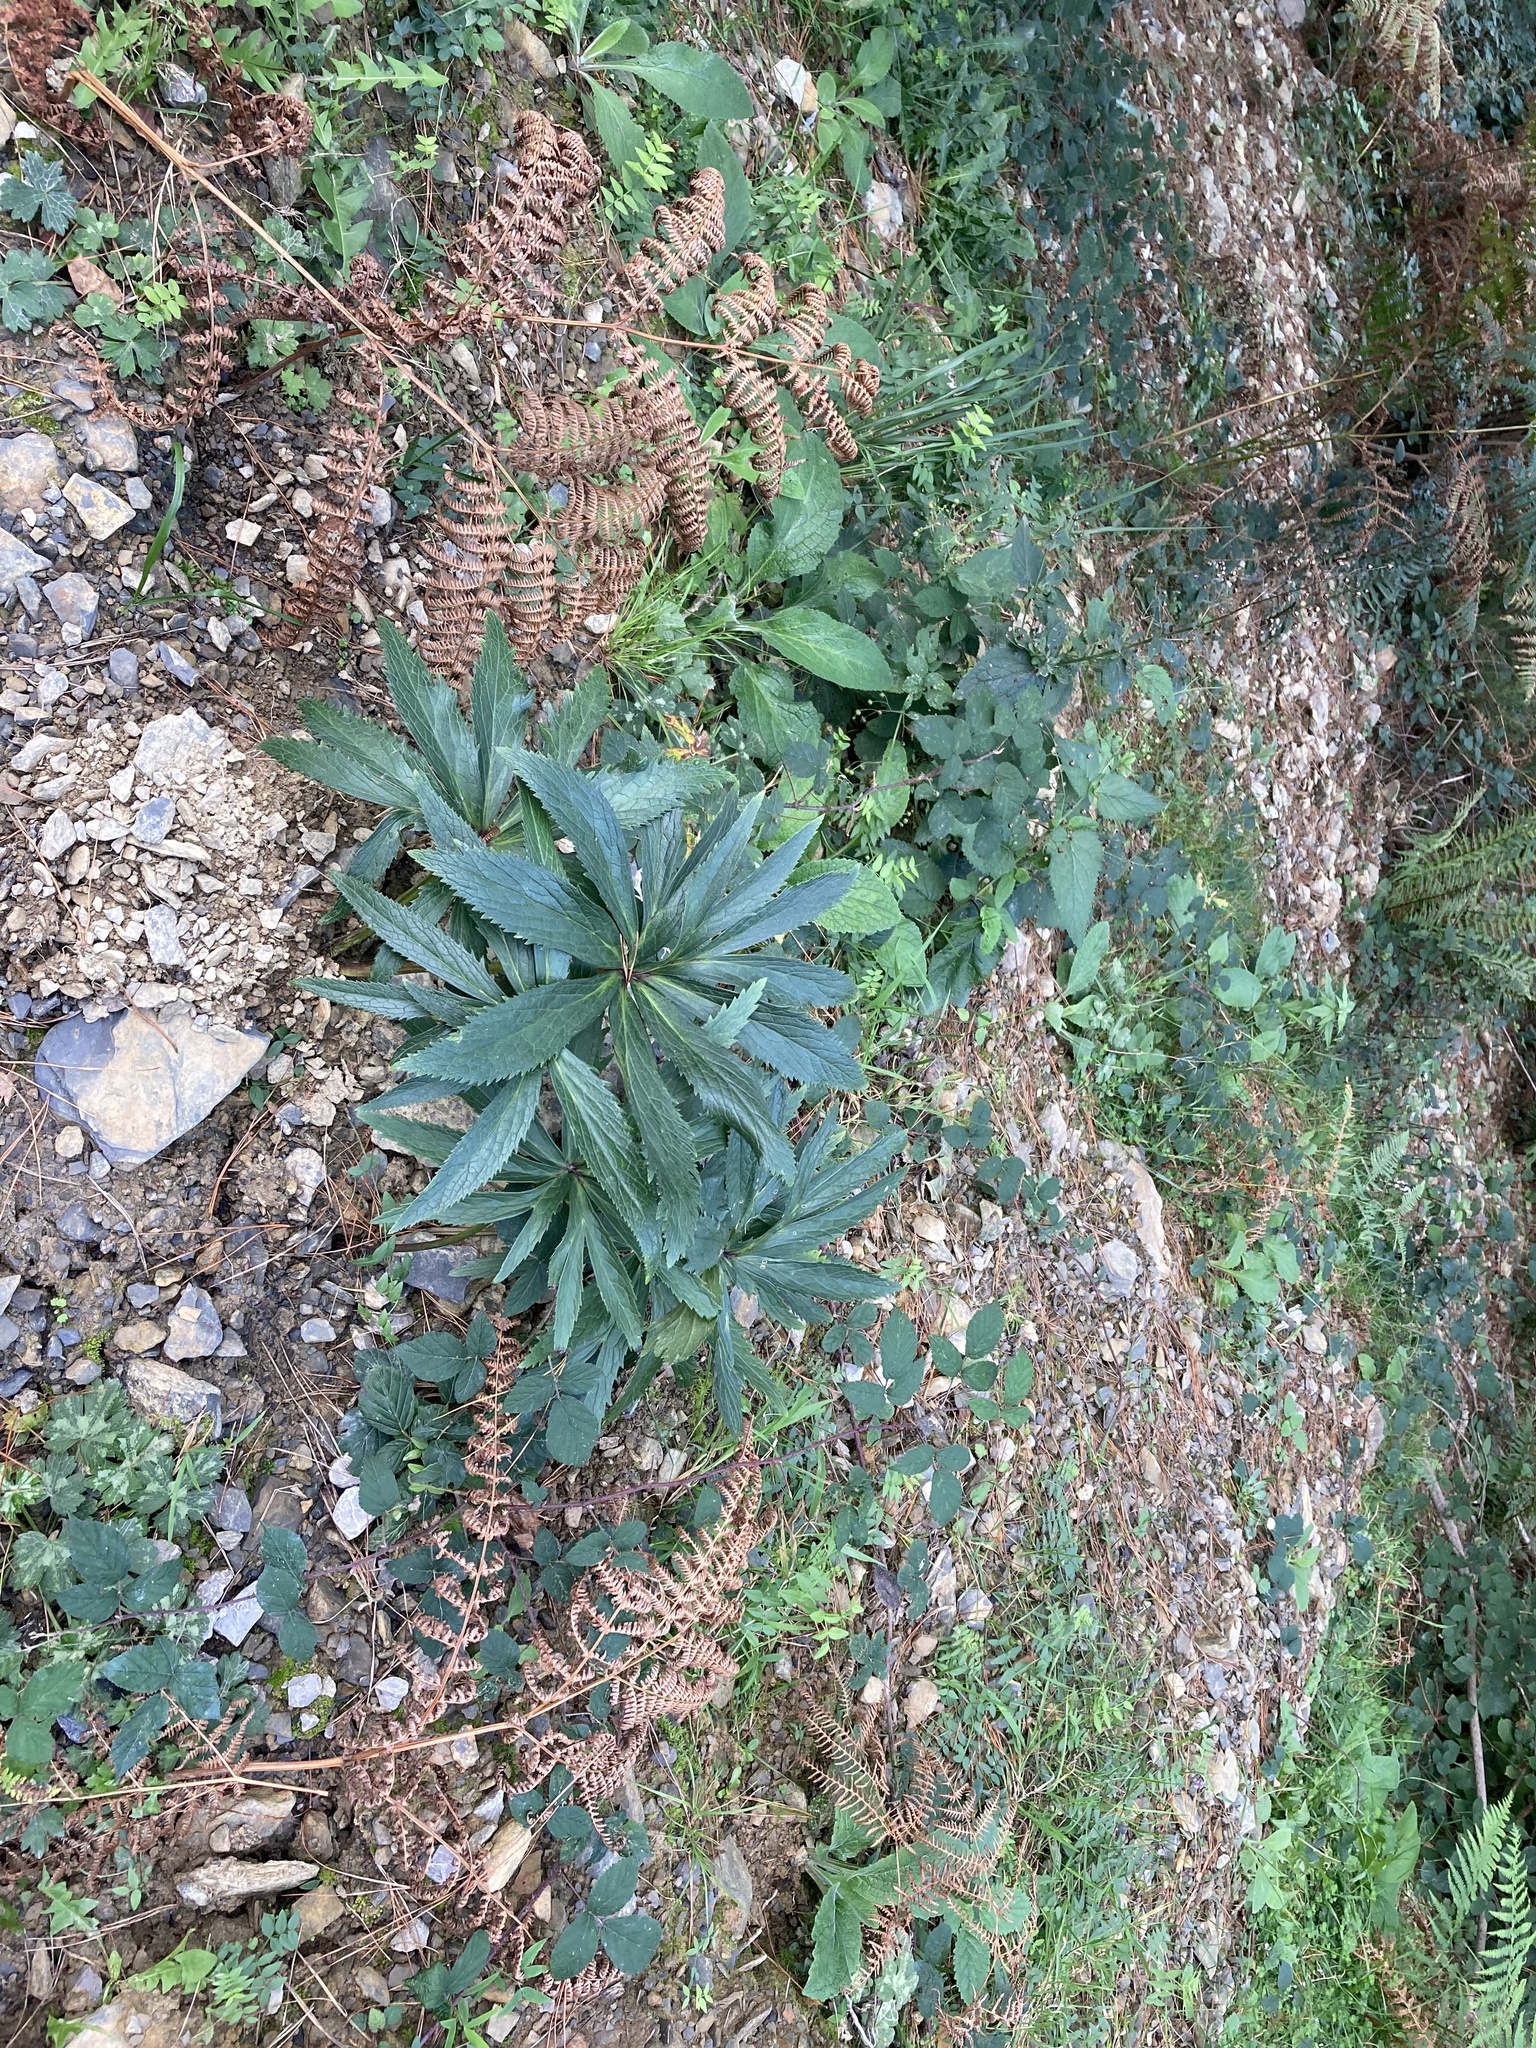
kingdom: Plantae
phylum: Tracheophyta
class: Magnoliopsida
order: Ranunculales
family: Ranunculaceae
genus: Helleborus
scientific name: Helleborus viridis
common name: Green hellebore
